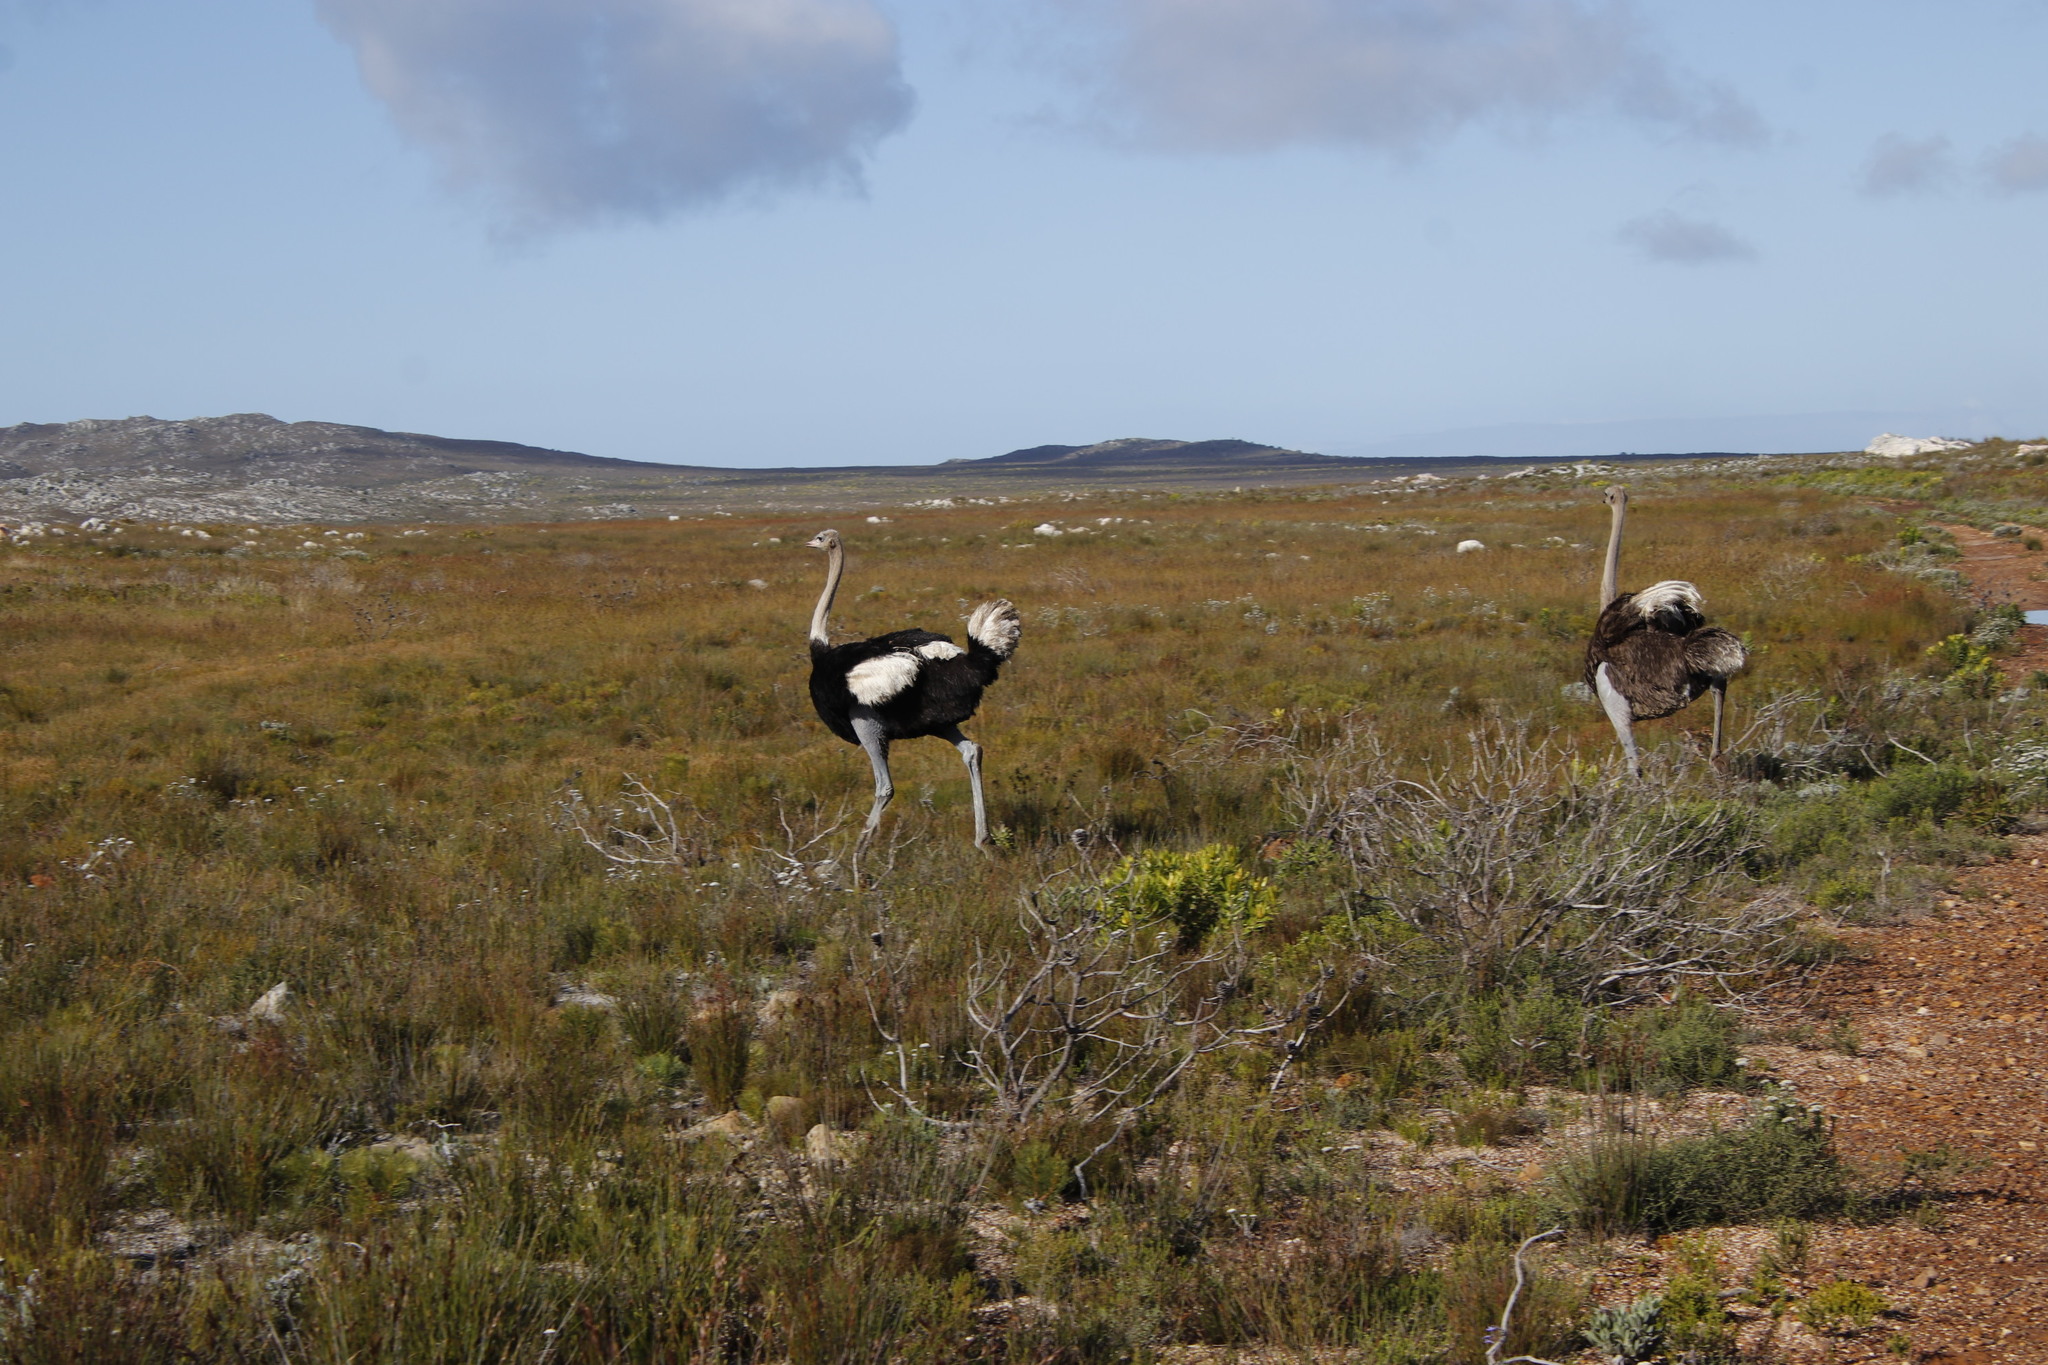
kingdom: Animalia
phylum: Chordata
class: Aves
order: Struthioniformes
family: Struthionidae
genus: Struthio
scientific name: Struthio camelus
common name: Common ostrich
